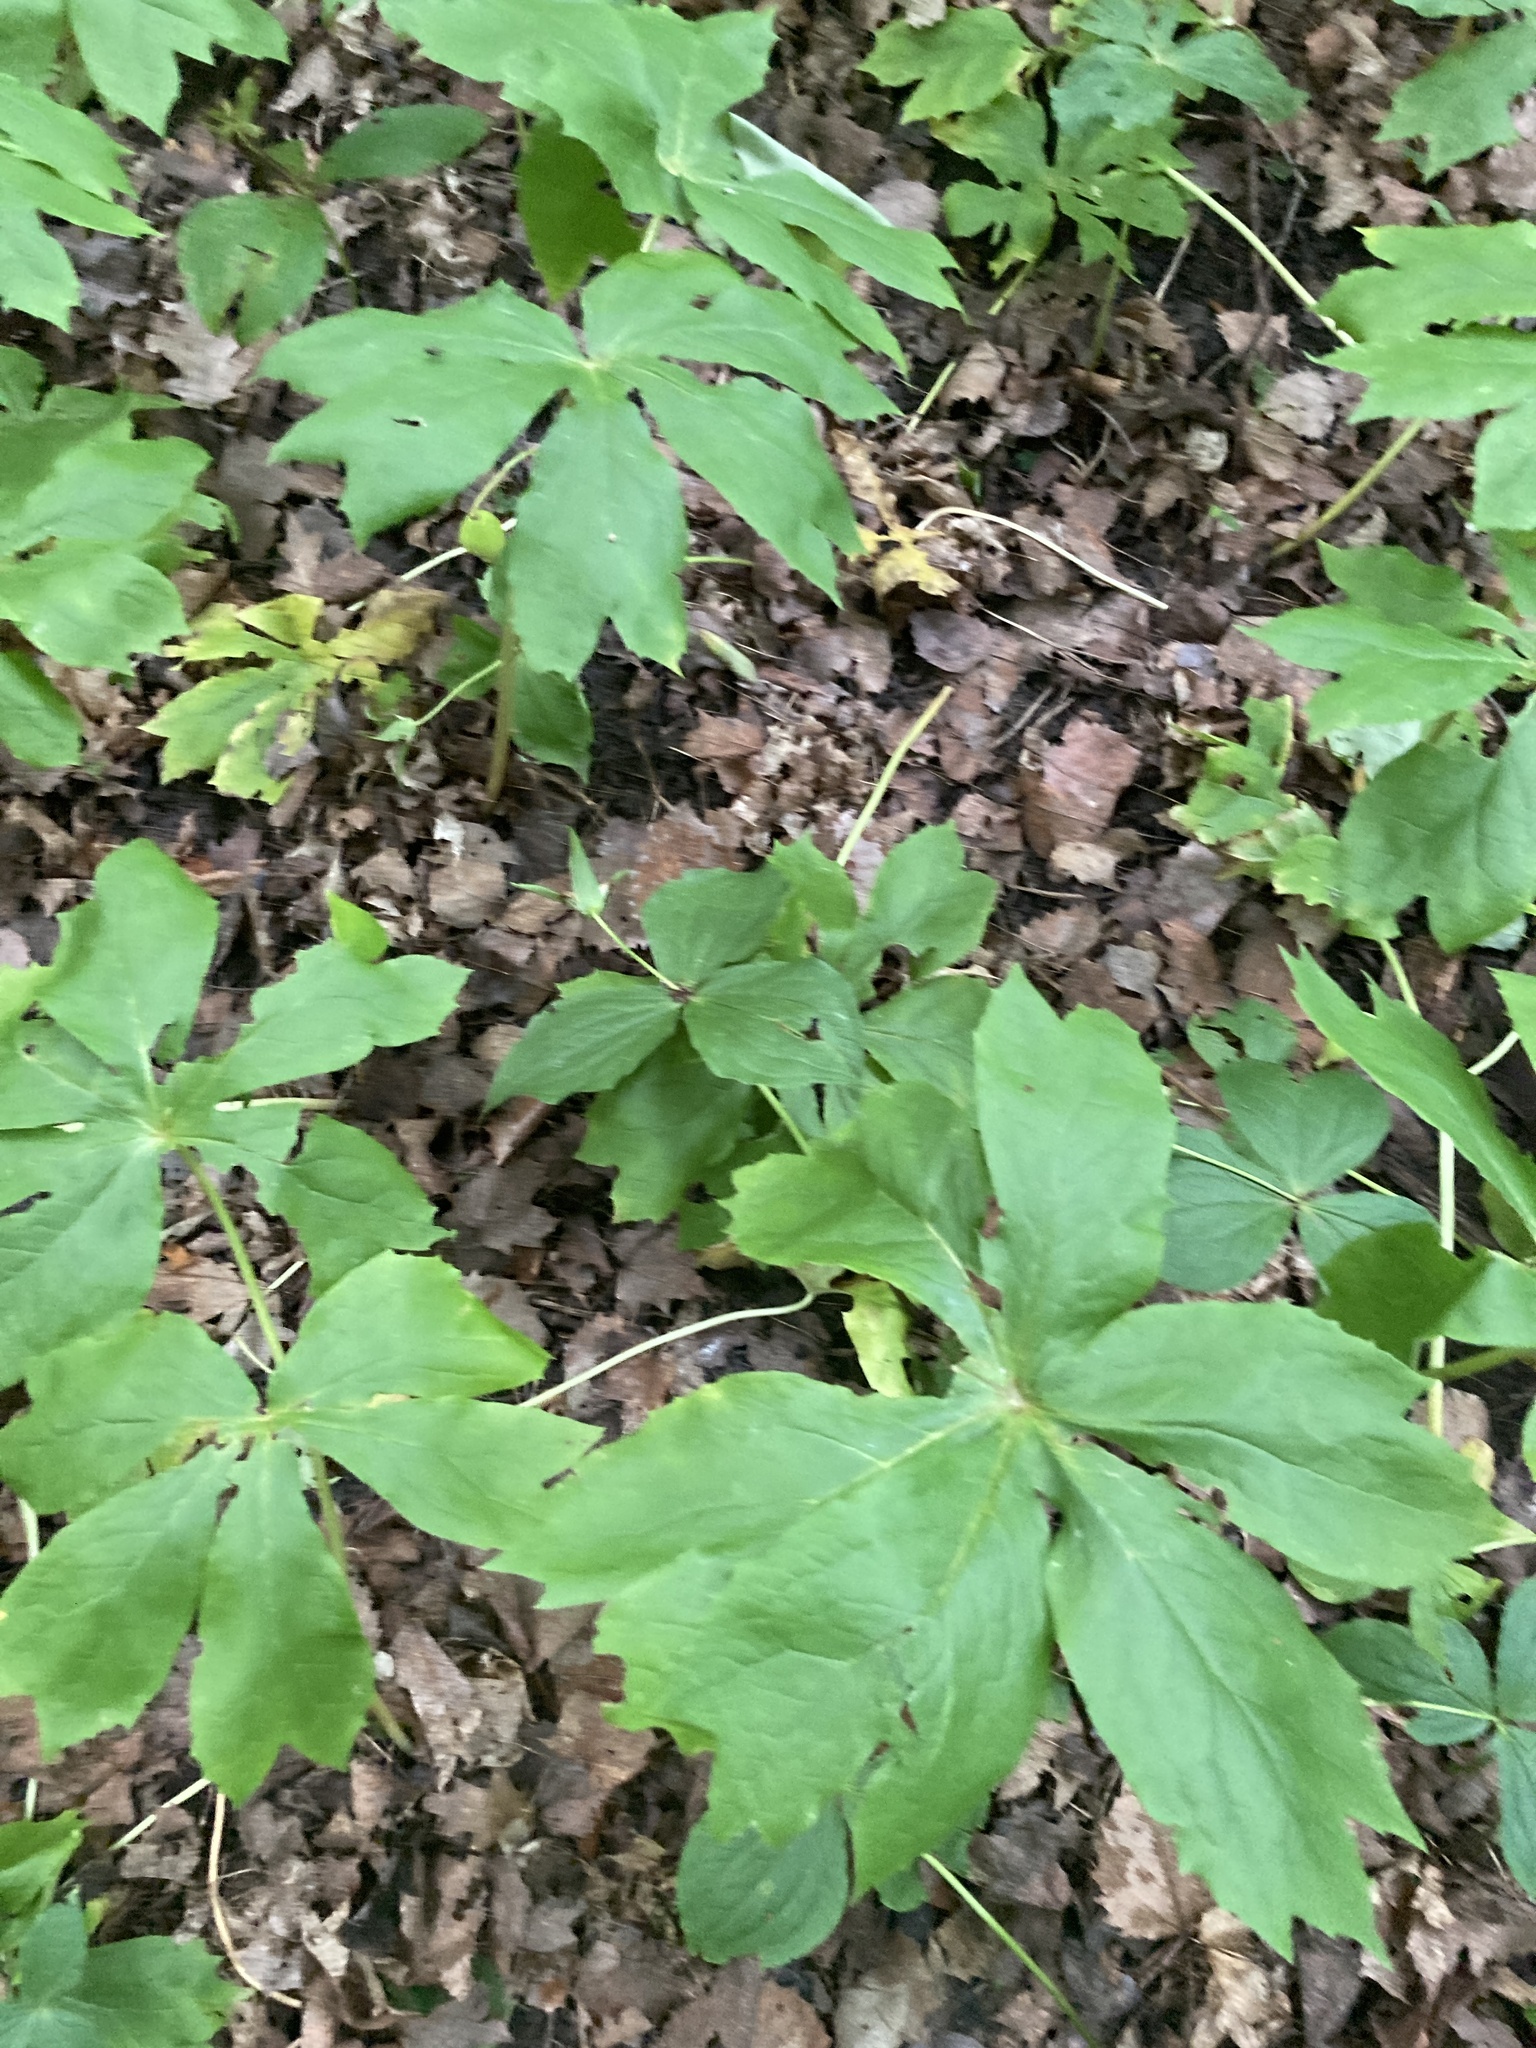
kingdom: Plantae
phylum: Tracheophyta
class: Magnoliopsida
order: Ranunculales
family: Berberidaceae
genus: Podophyllum
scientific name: Podophyllum peltatum
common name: Wild mandrake
